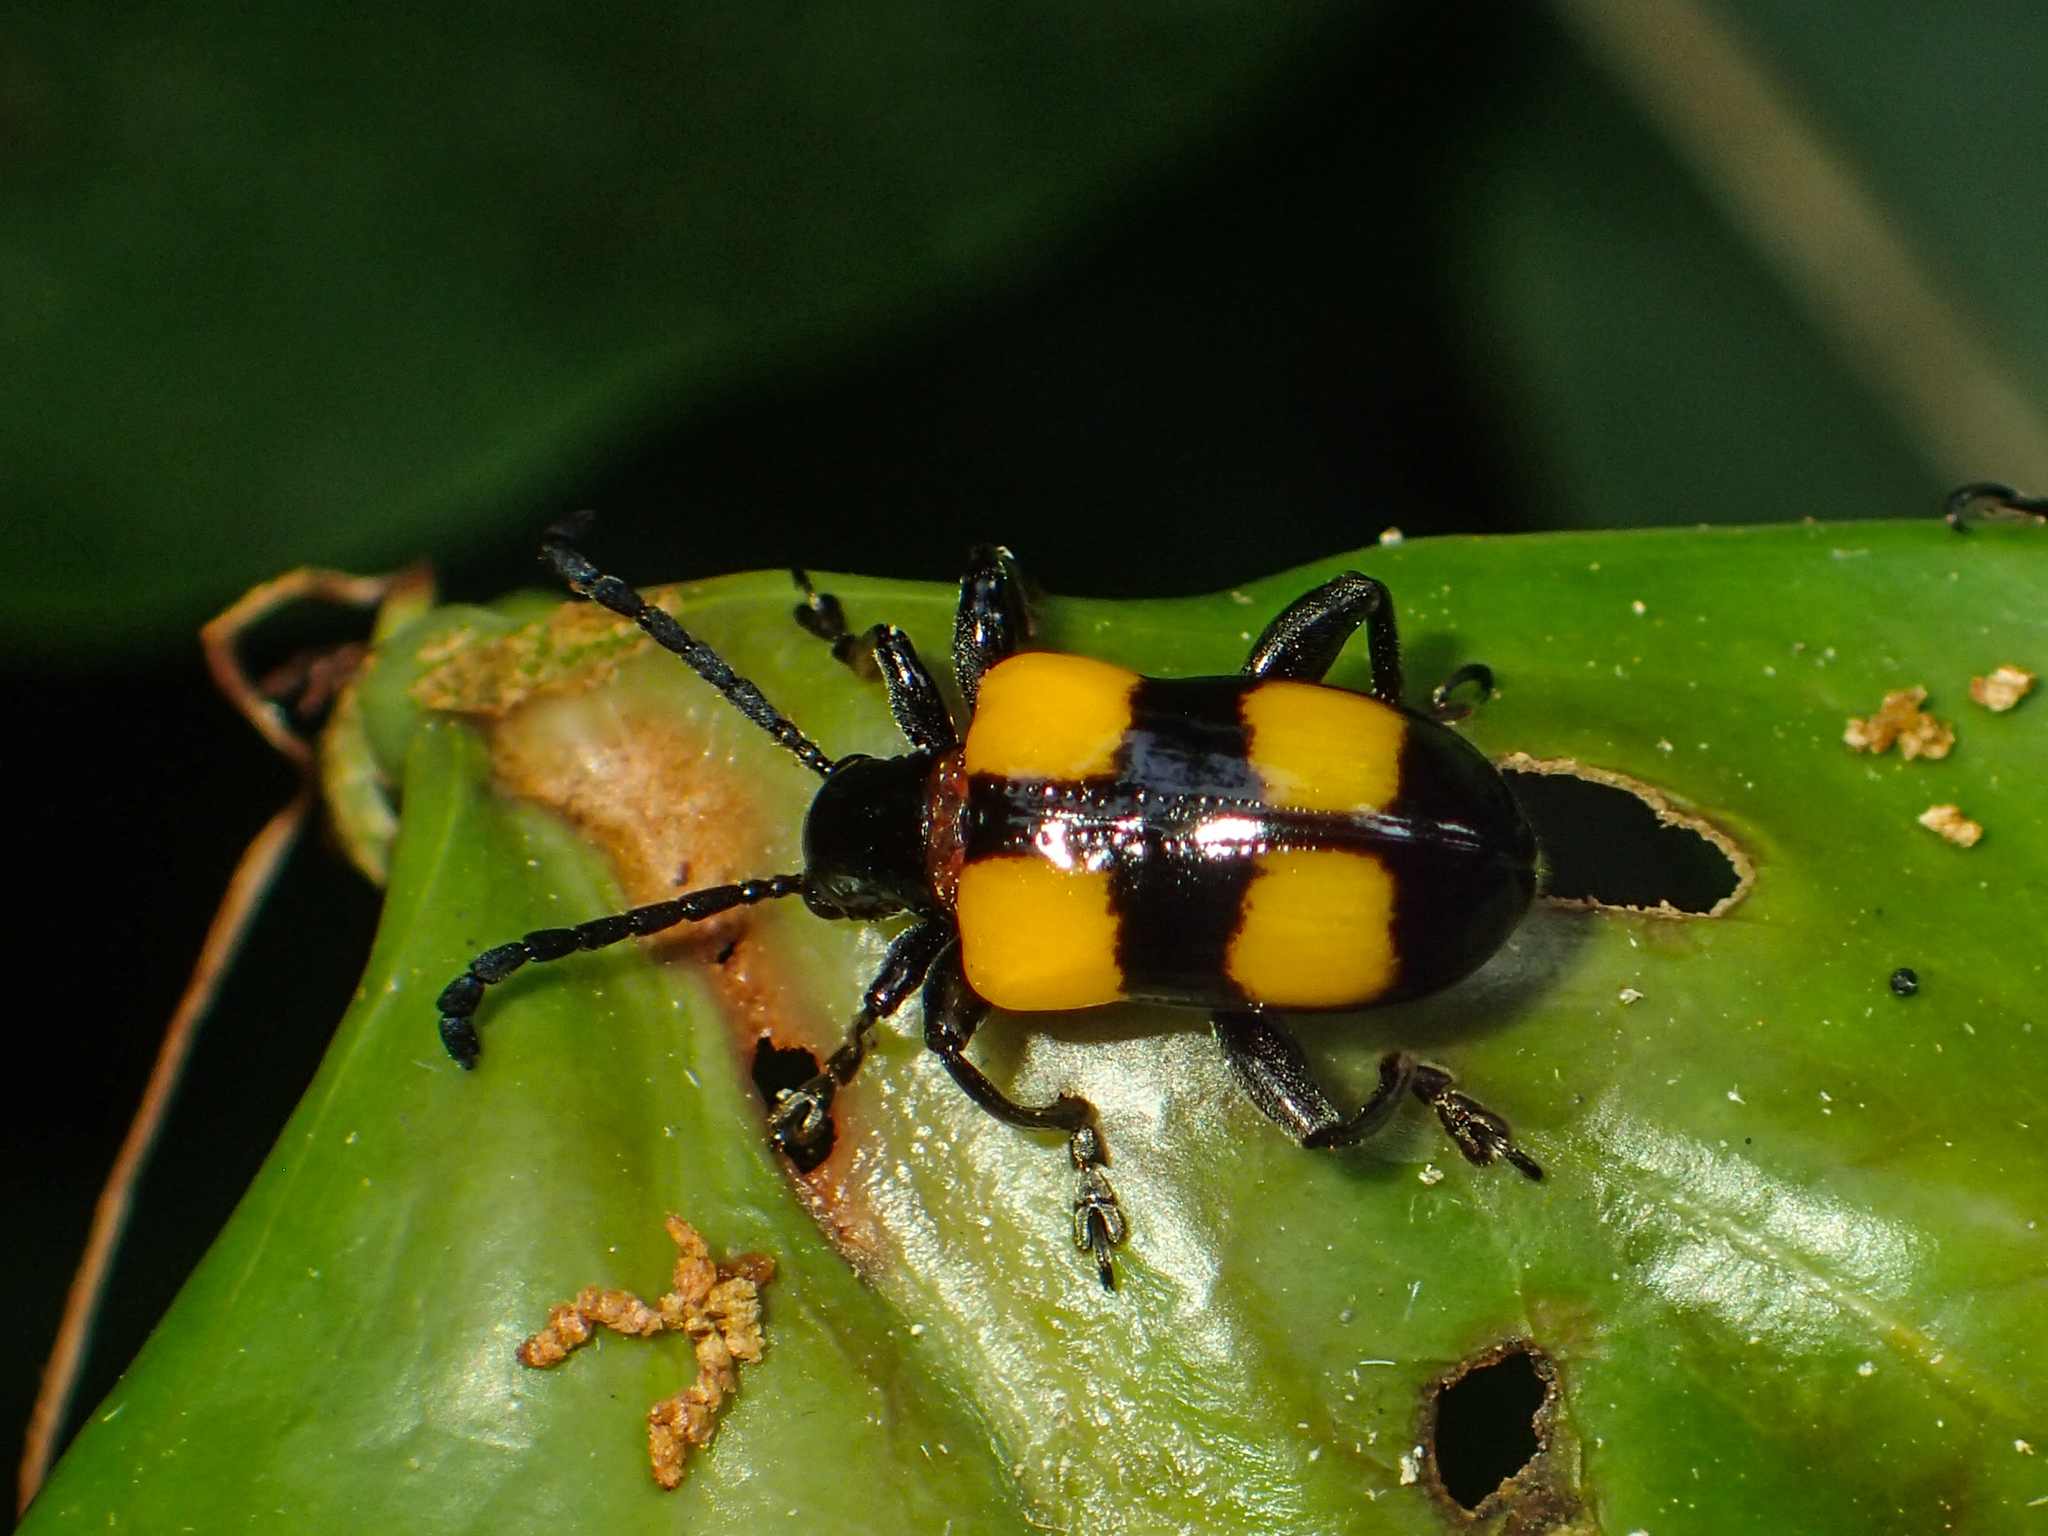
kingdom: Animalia
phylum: Arthropoda
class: Insecta
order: Coleoptera
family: Chrysomelidae
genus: Lilioceris
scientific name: Lilioceris
